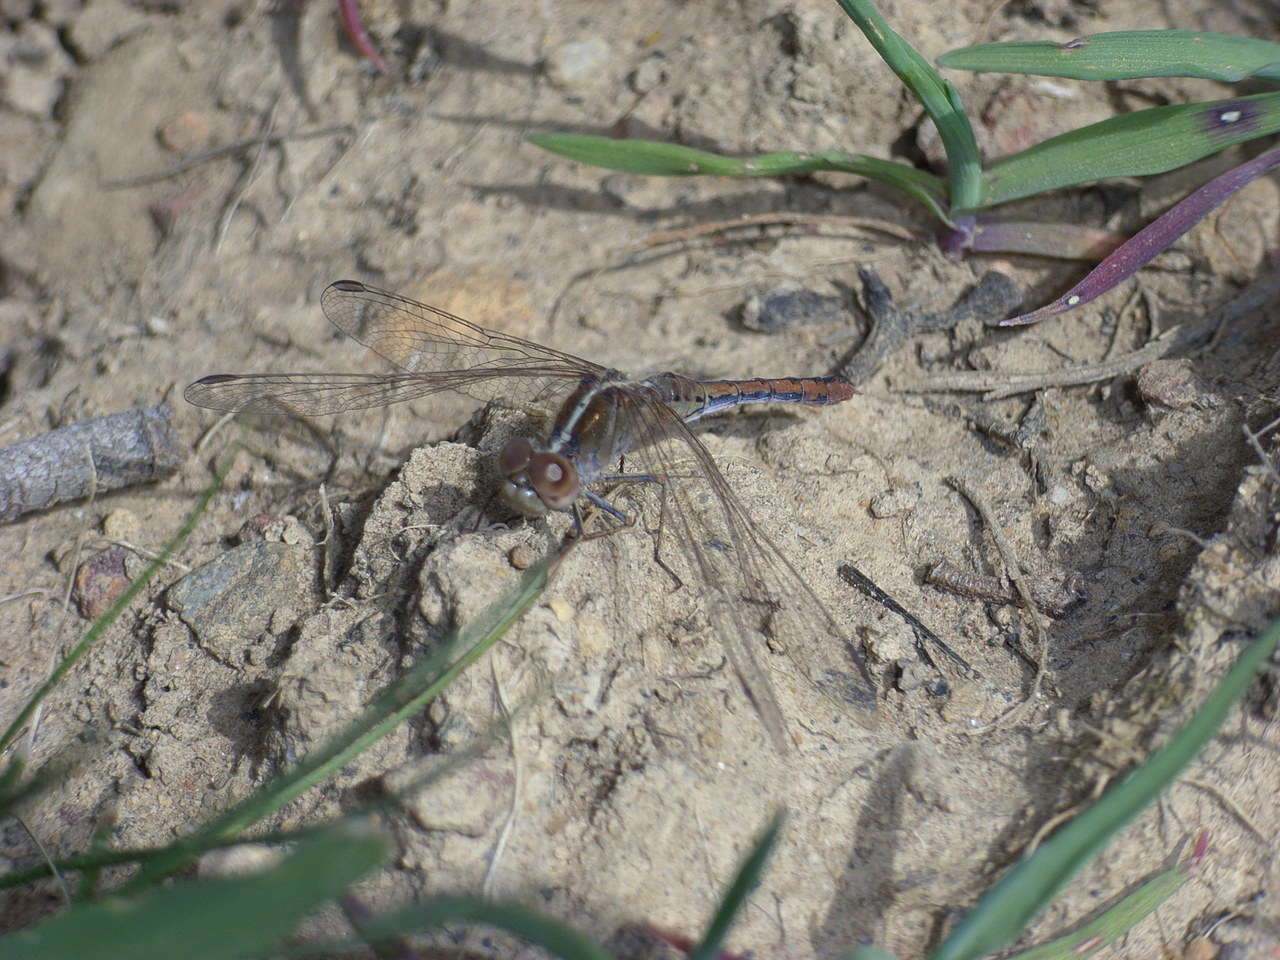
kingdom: Animalia
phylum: Arthropoda
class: Insecta
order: Odonata
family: Libellulidae
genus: Diplacodes
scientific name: Diplacodes bipunctata
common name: Red percher dragonfly
